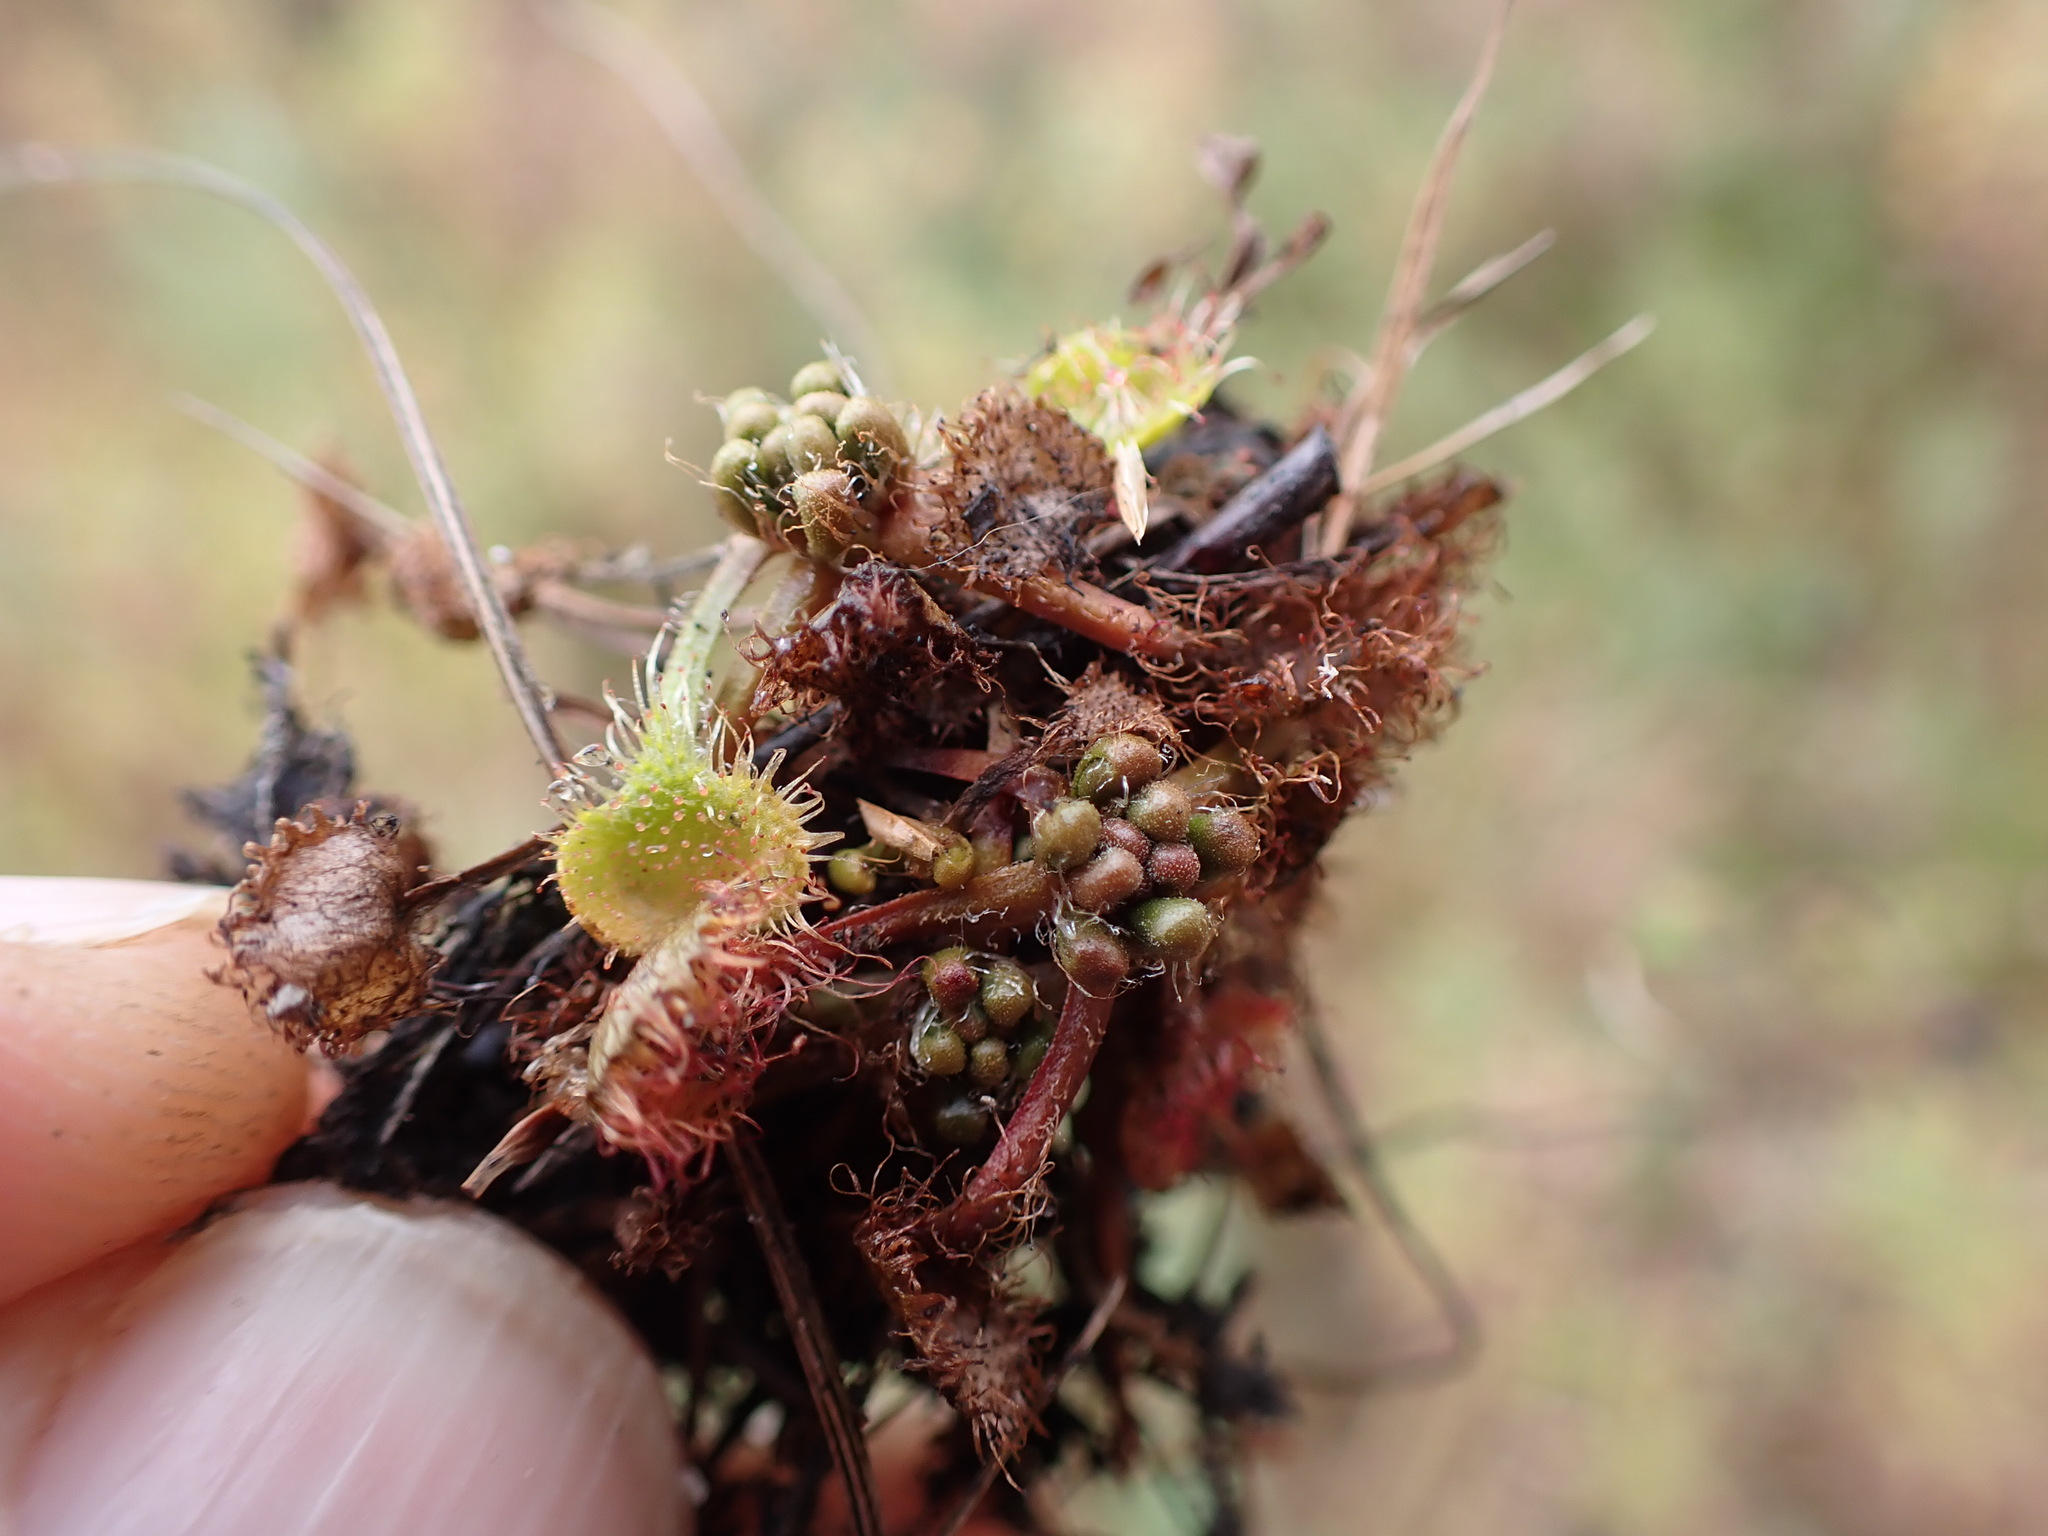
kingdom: Plantae
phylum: Tracheophyta
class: Magnoliopsida
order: Caryophyllales
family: Droseraceae
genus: Drosera
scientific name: Drosera rotundifolia
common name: Round-leaved sundew
